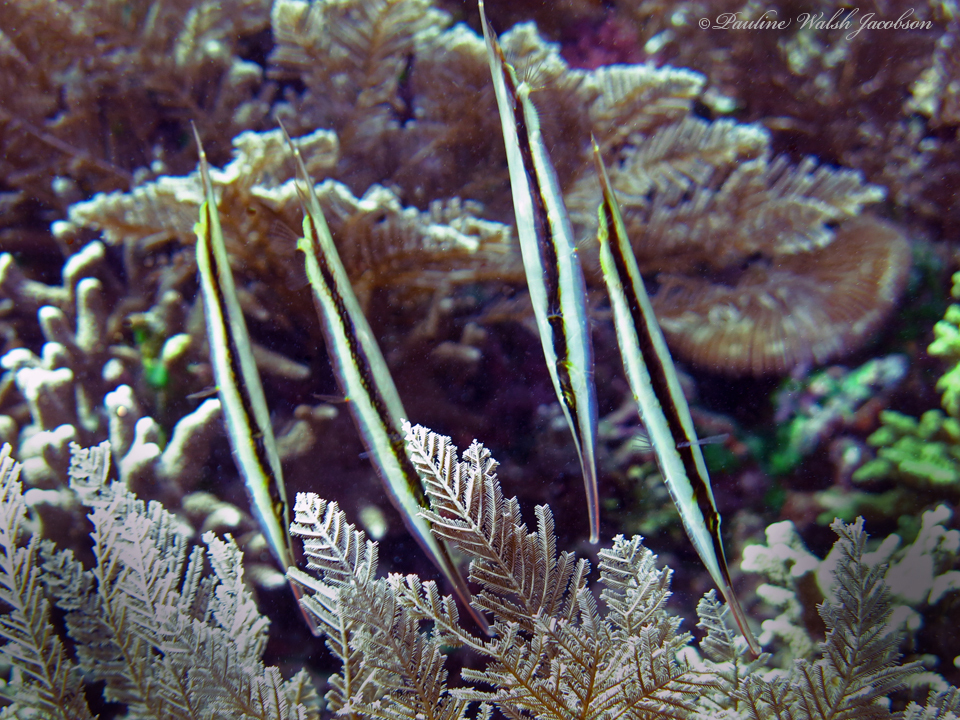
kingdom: Animalia
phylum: Chordata
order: Syngnathiformes
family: Centriscidae
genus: Aeoliscus
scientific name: Aeoliscus strigatus
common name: Canif
